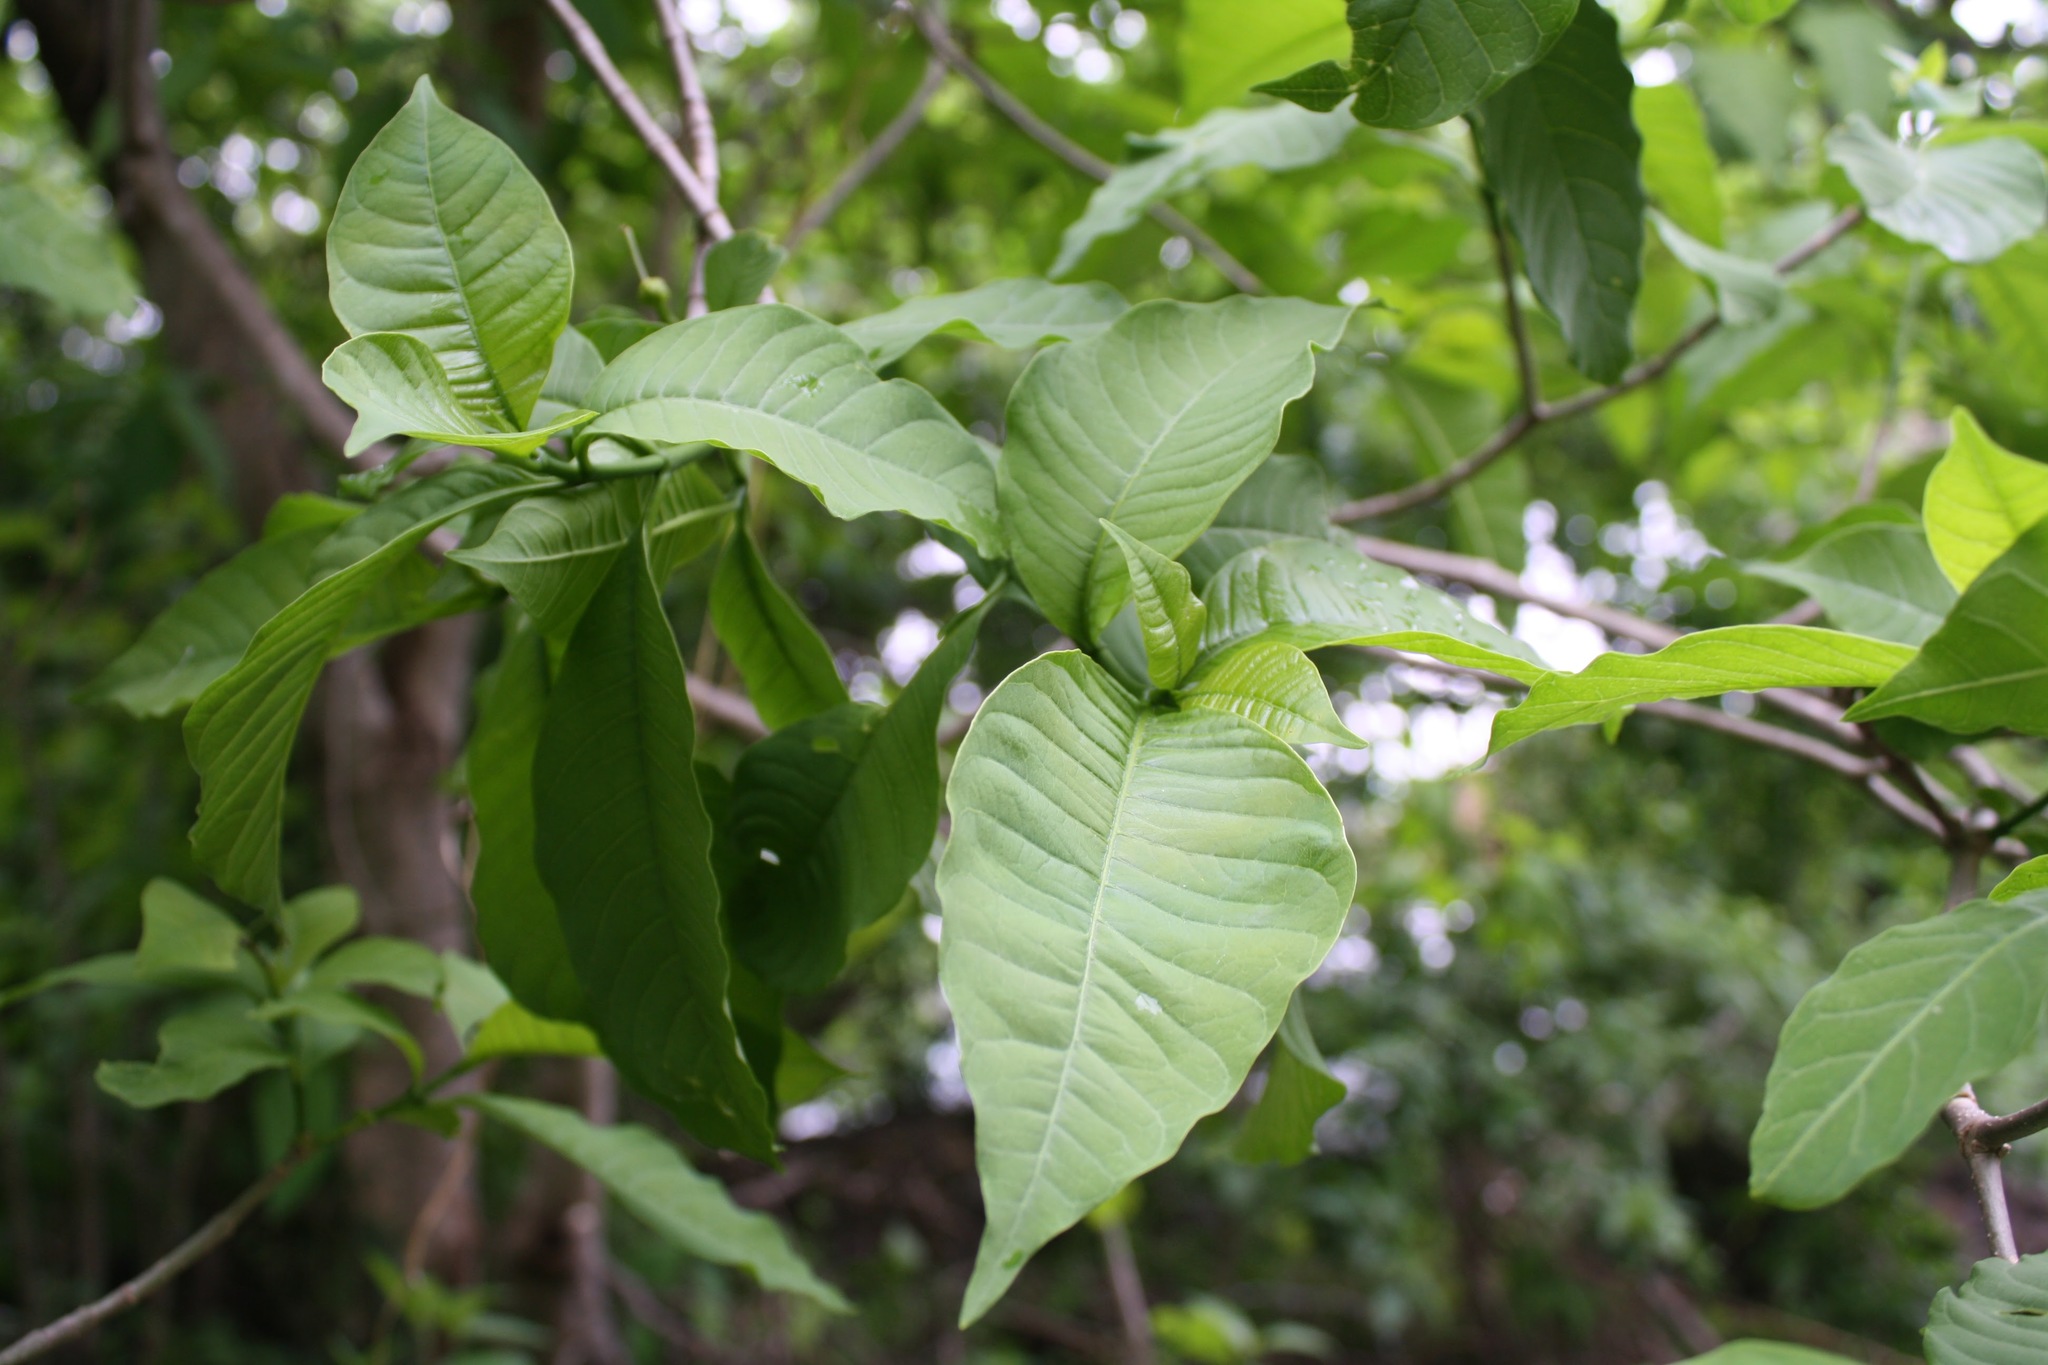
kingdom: Plantae
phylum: Tracheophyta
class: Magnoliopsida
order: Gentianales
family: Apocynaceae
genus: Tabernaemontana
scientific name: Tabernaemontana tomentosa
